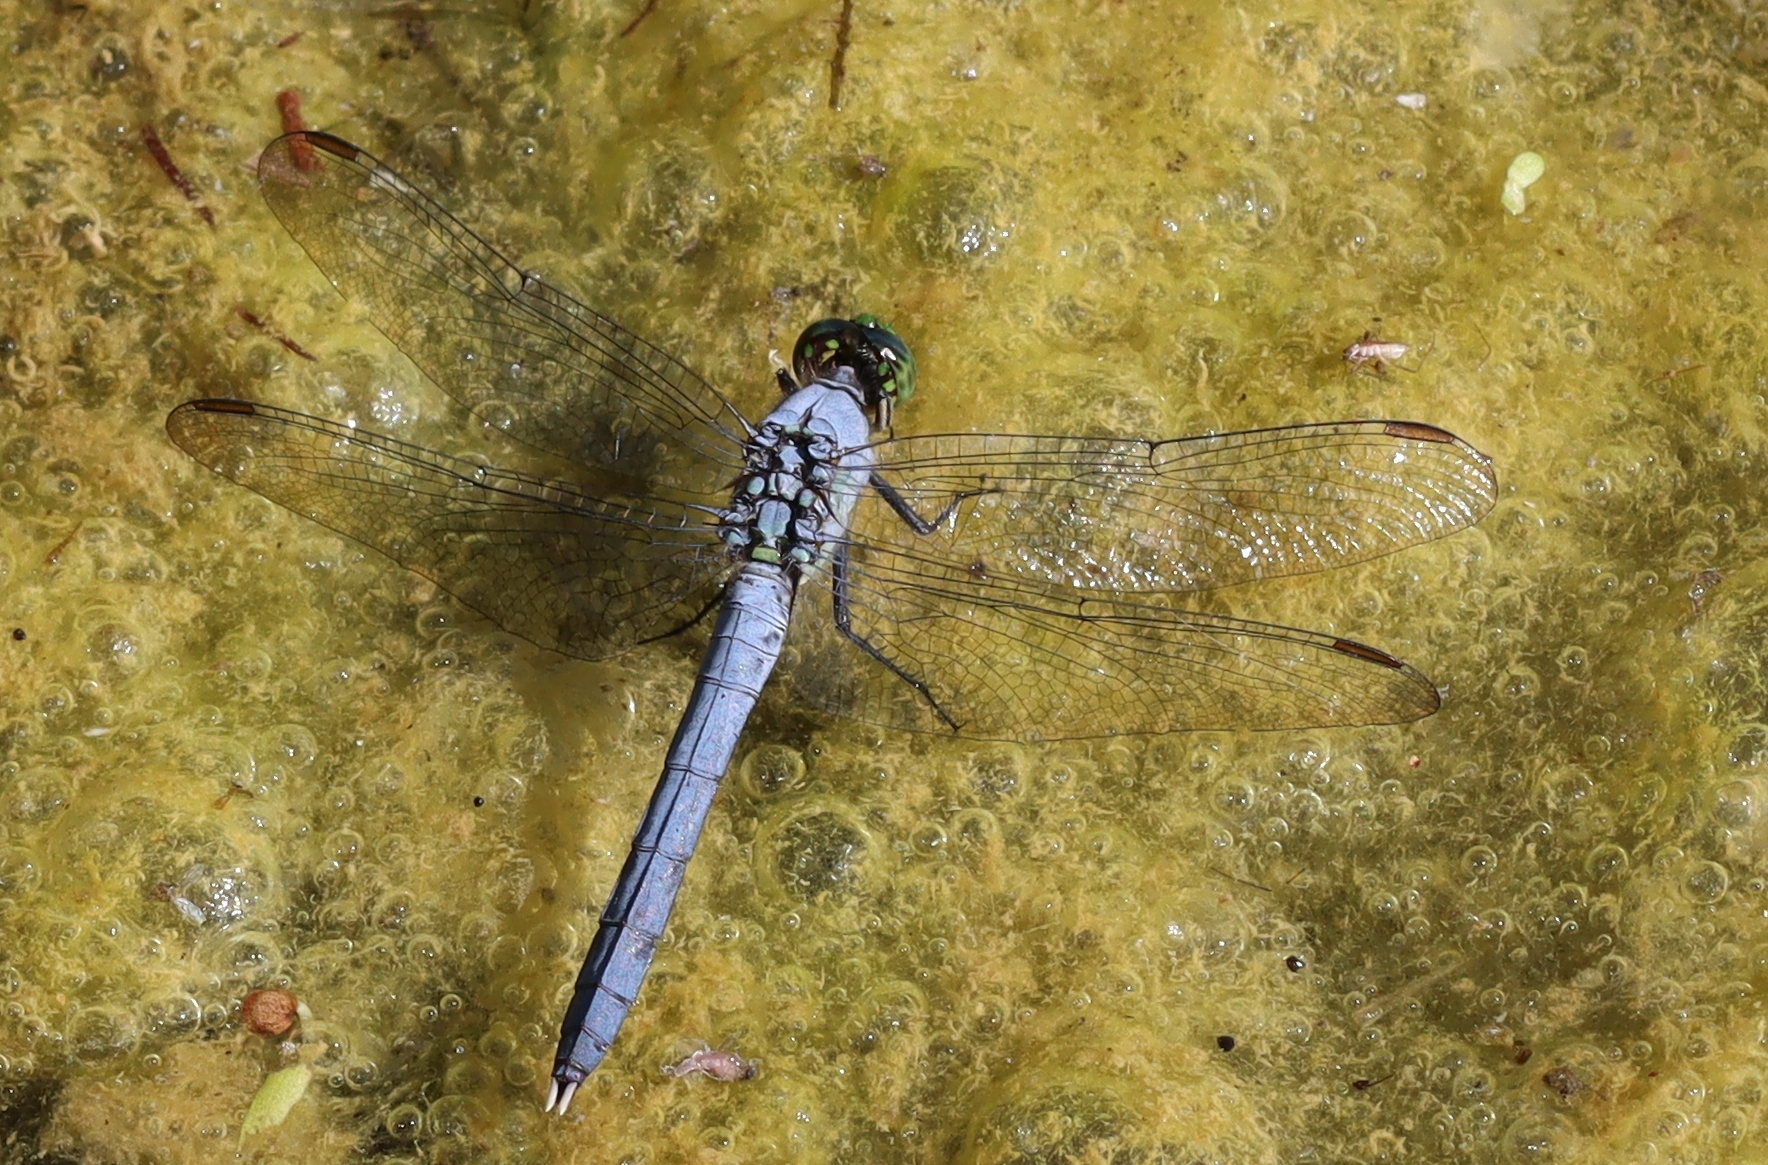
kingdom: Animalia
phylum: Arthropoda
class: Insecta
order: Odonata
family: Libellulidae
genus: Erythemis
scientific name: Erythemis simplicicollis
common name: Eastern pondhawk
